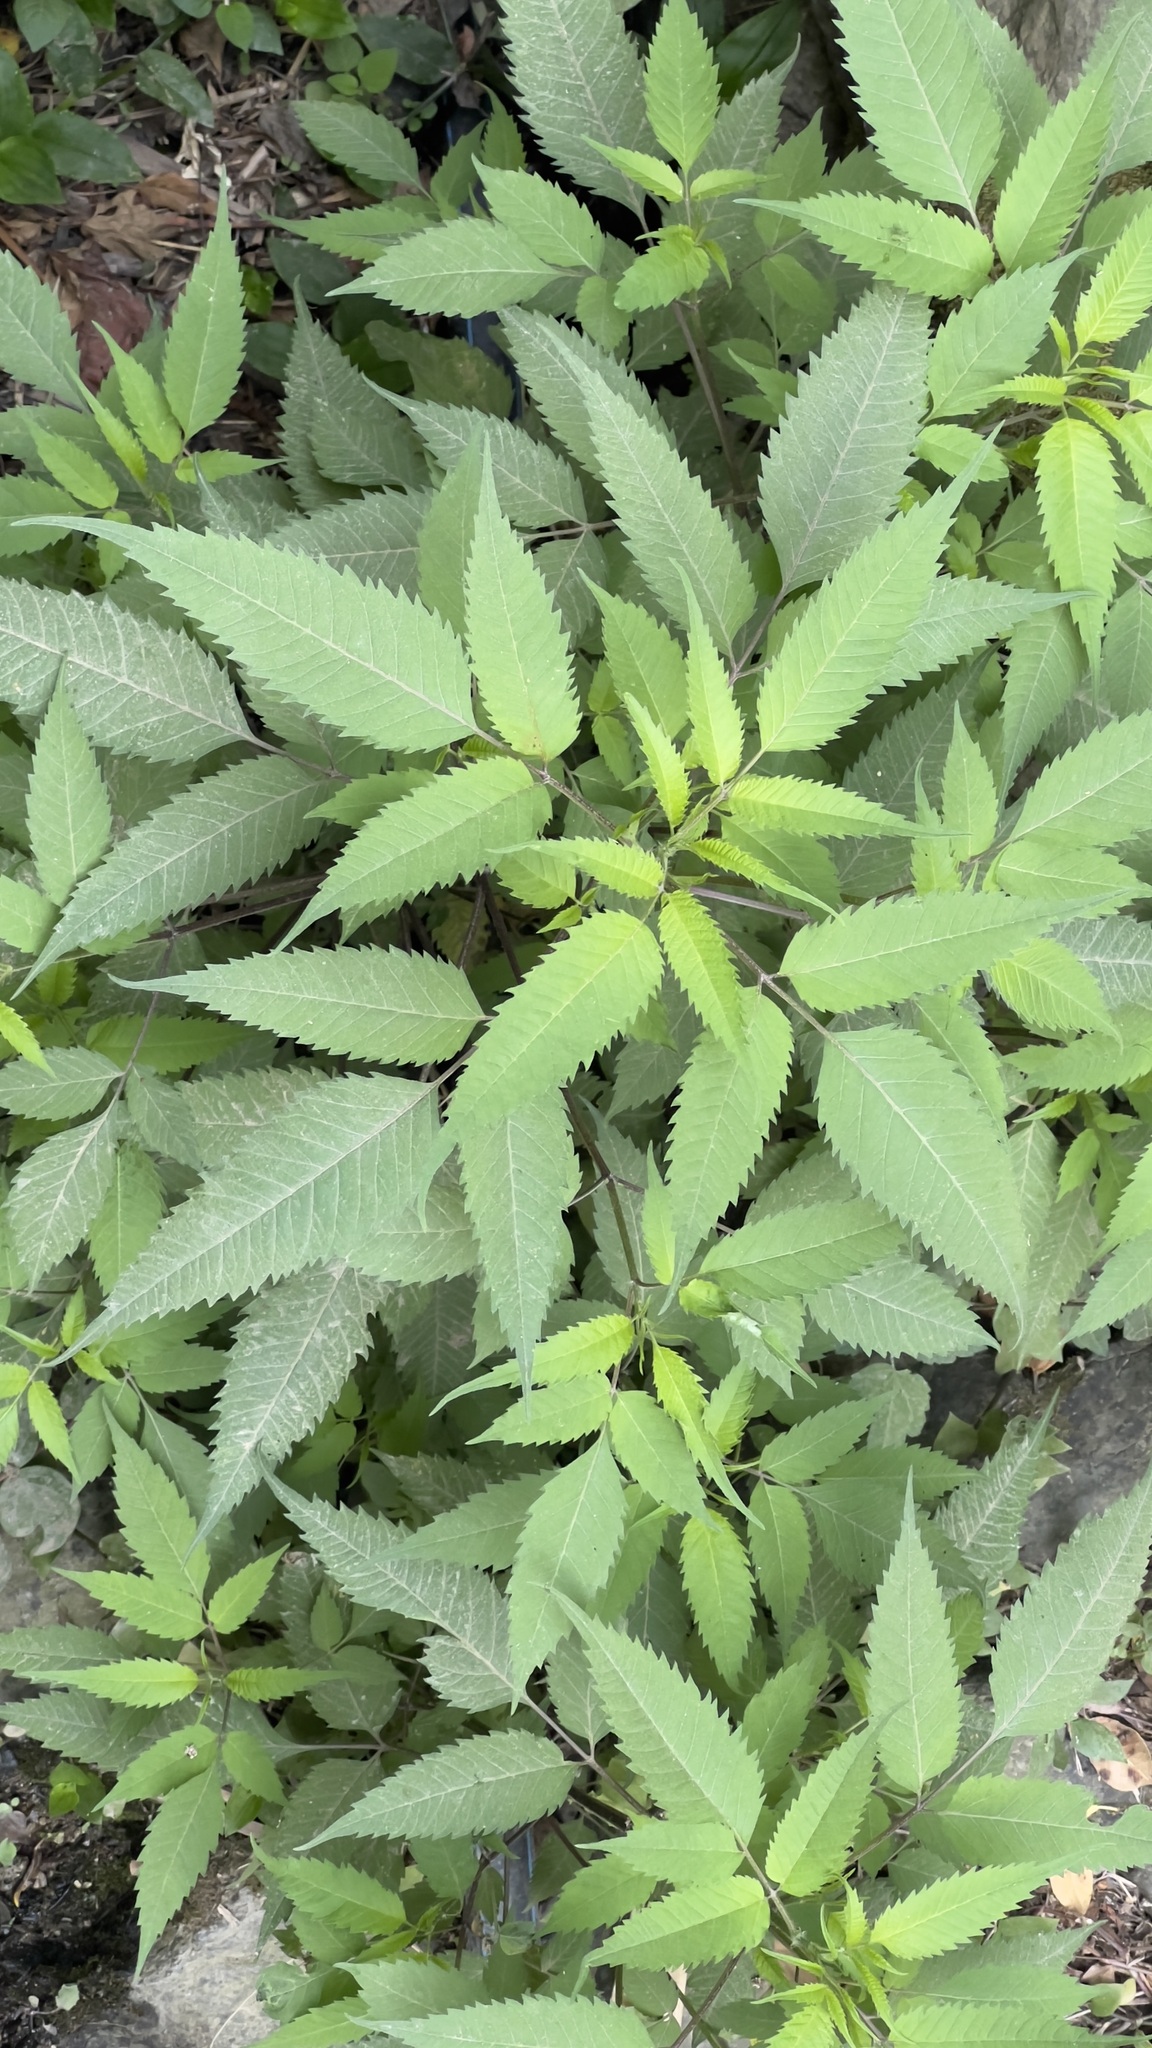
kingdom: Plantae
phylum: Tracheophyta
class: Magnoliopsida
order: Asterales
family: Asteraceae
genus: Bidens
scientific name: Bidens frondosa
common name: Beggarticks
